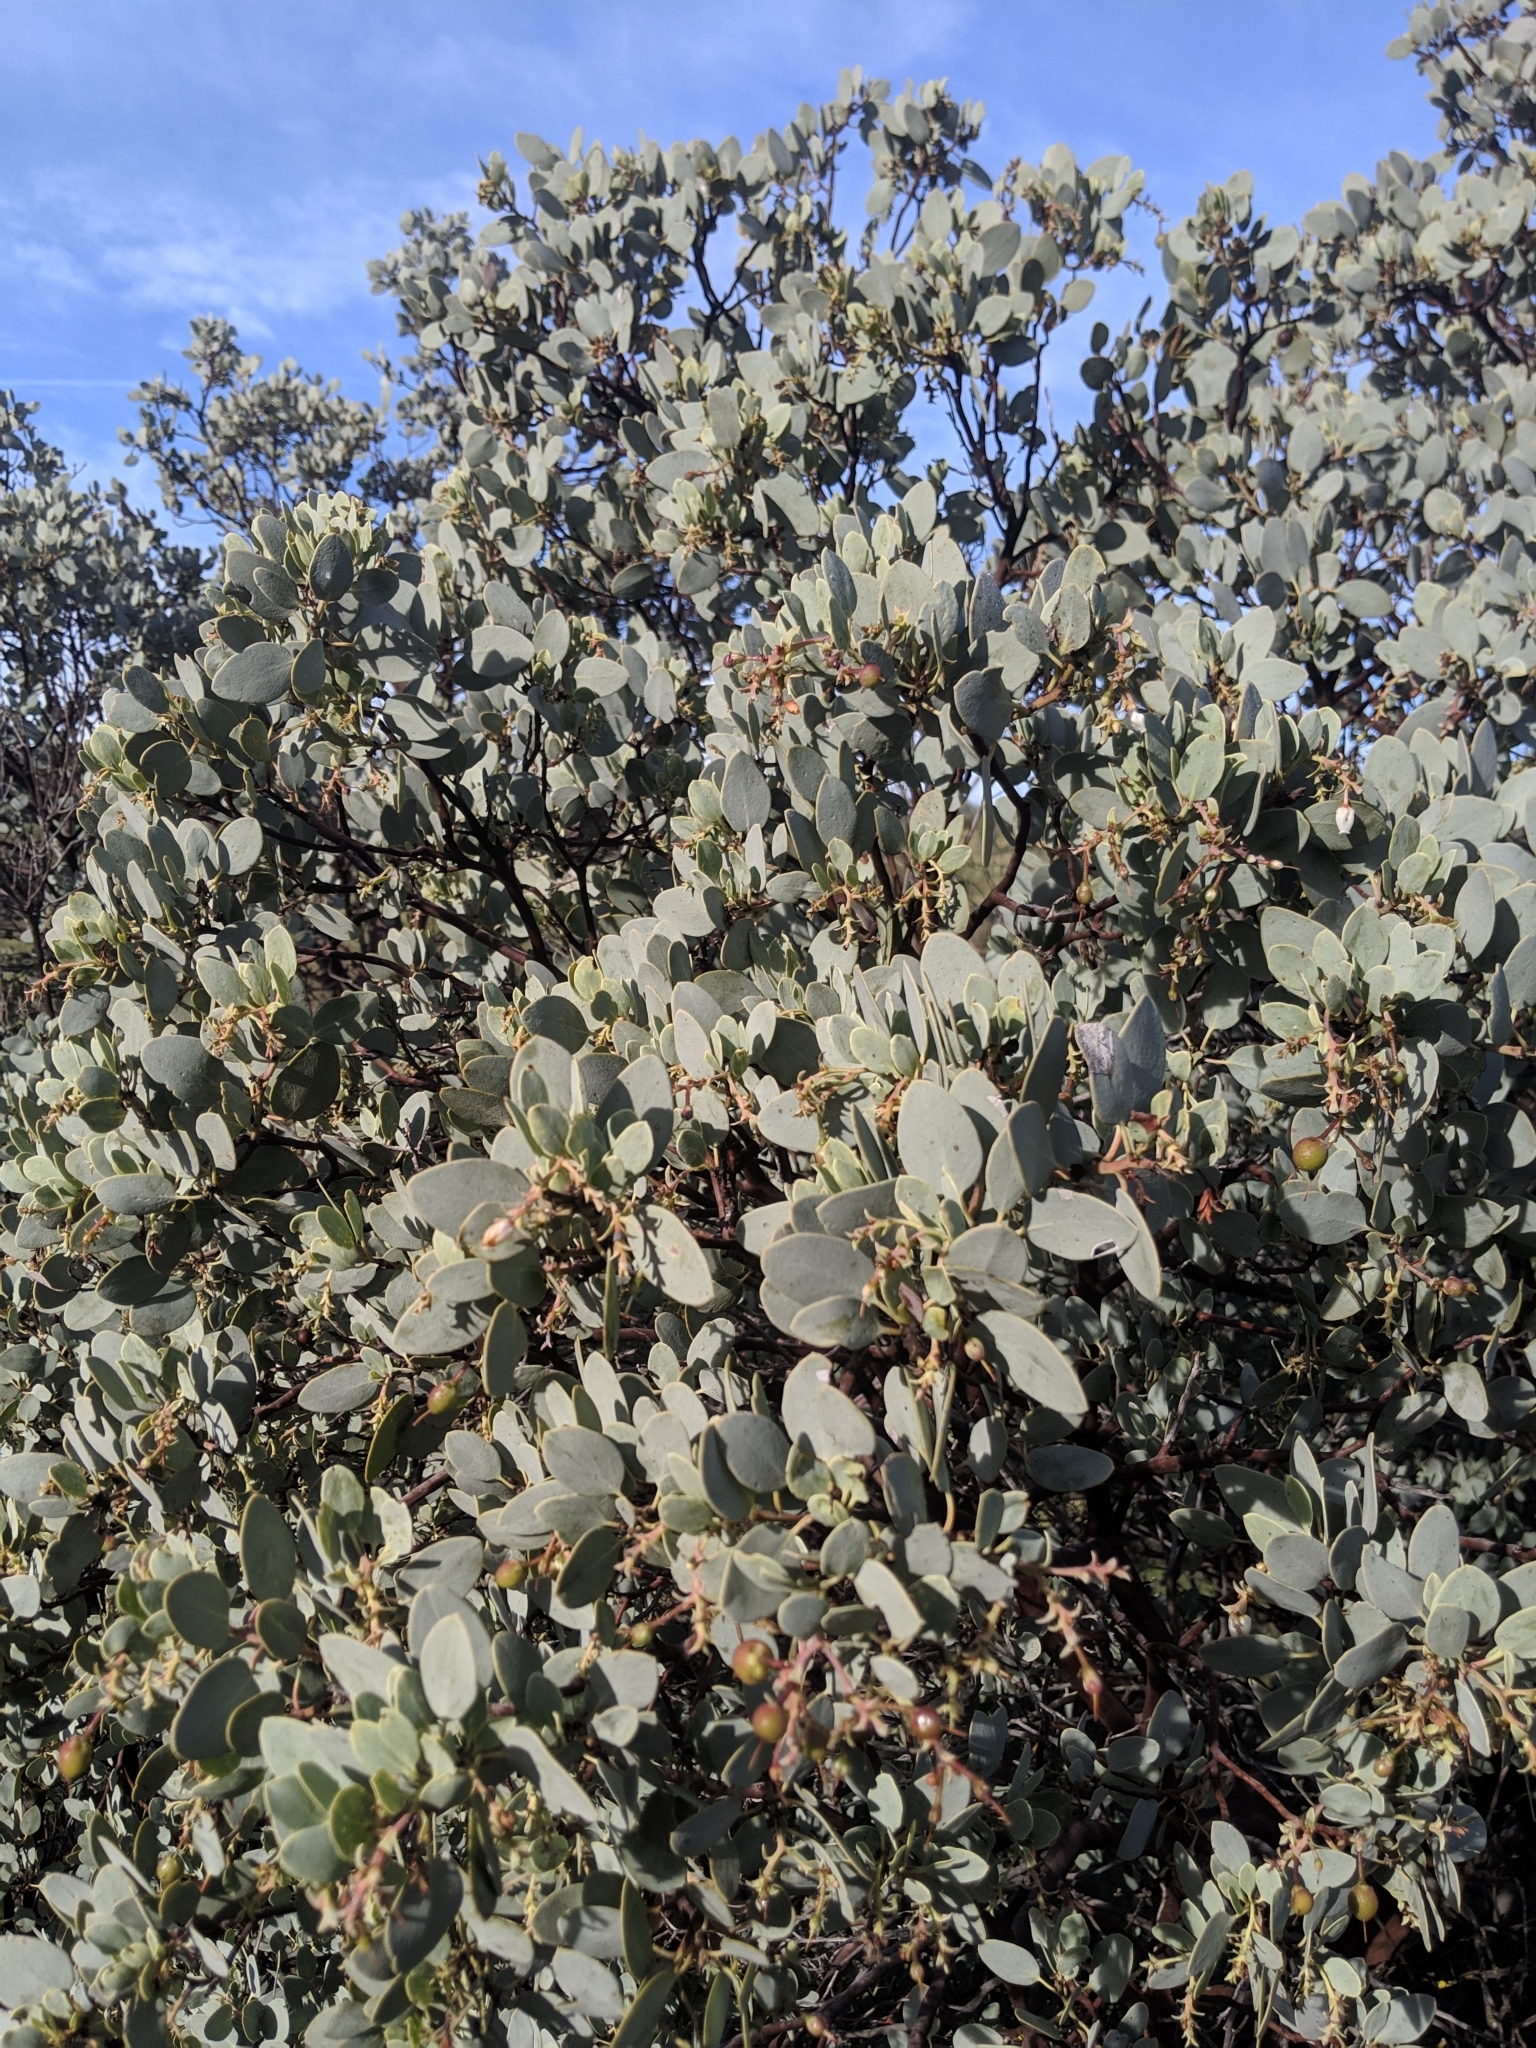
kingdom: Plantae
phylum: Tracheophyta
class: Magnoliopsida
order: Ericales
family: Ericaceae
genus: Arctostaphylos
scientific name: Arctostaphylos glauca
